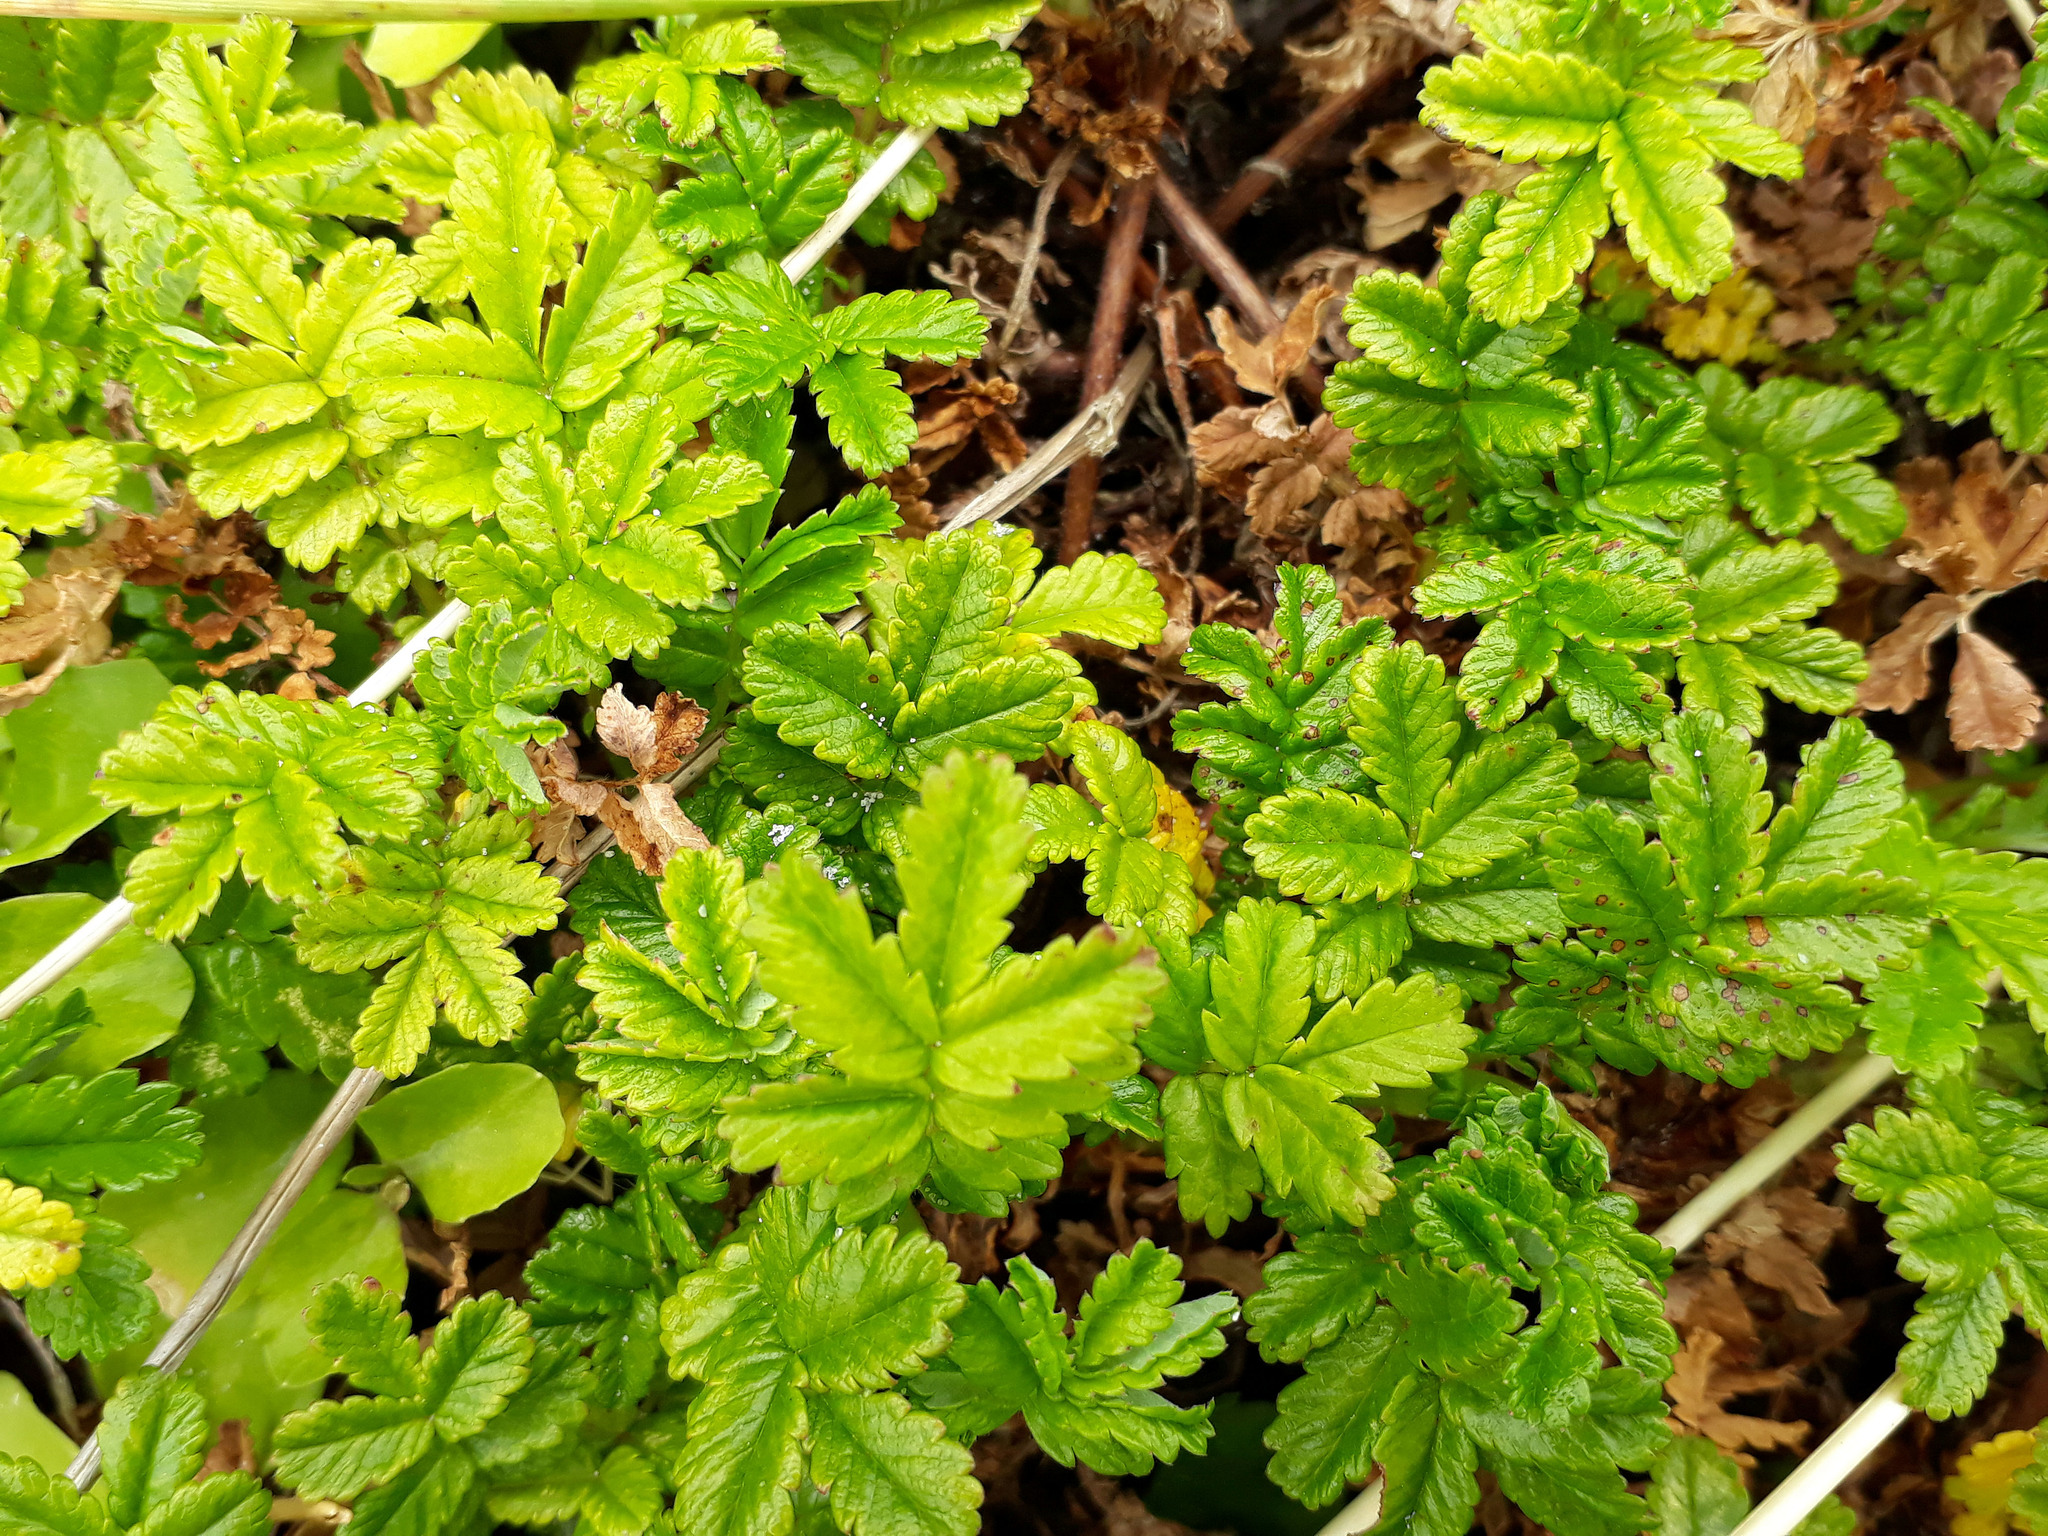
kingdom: Plantae
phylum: Tracheophyta
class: Magnoliopsida
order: Rosales
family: Rosaceae
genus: Acaena
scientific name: Acaena pallida
